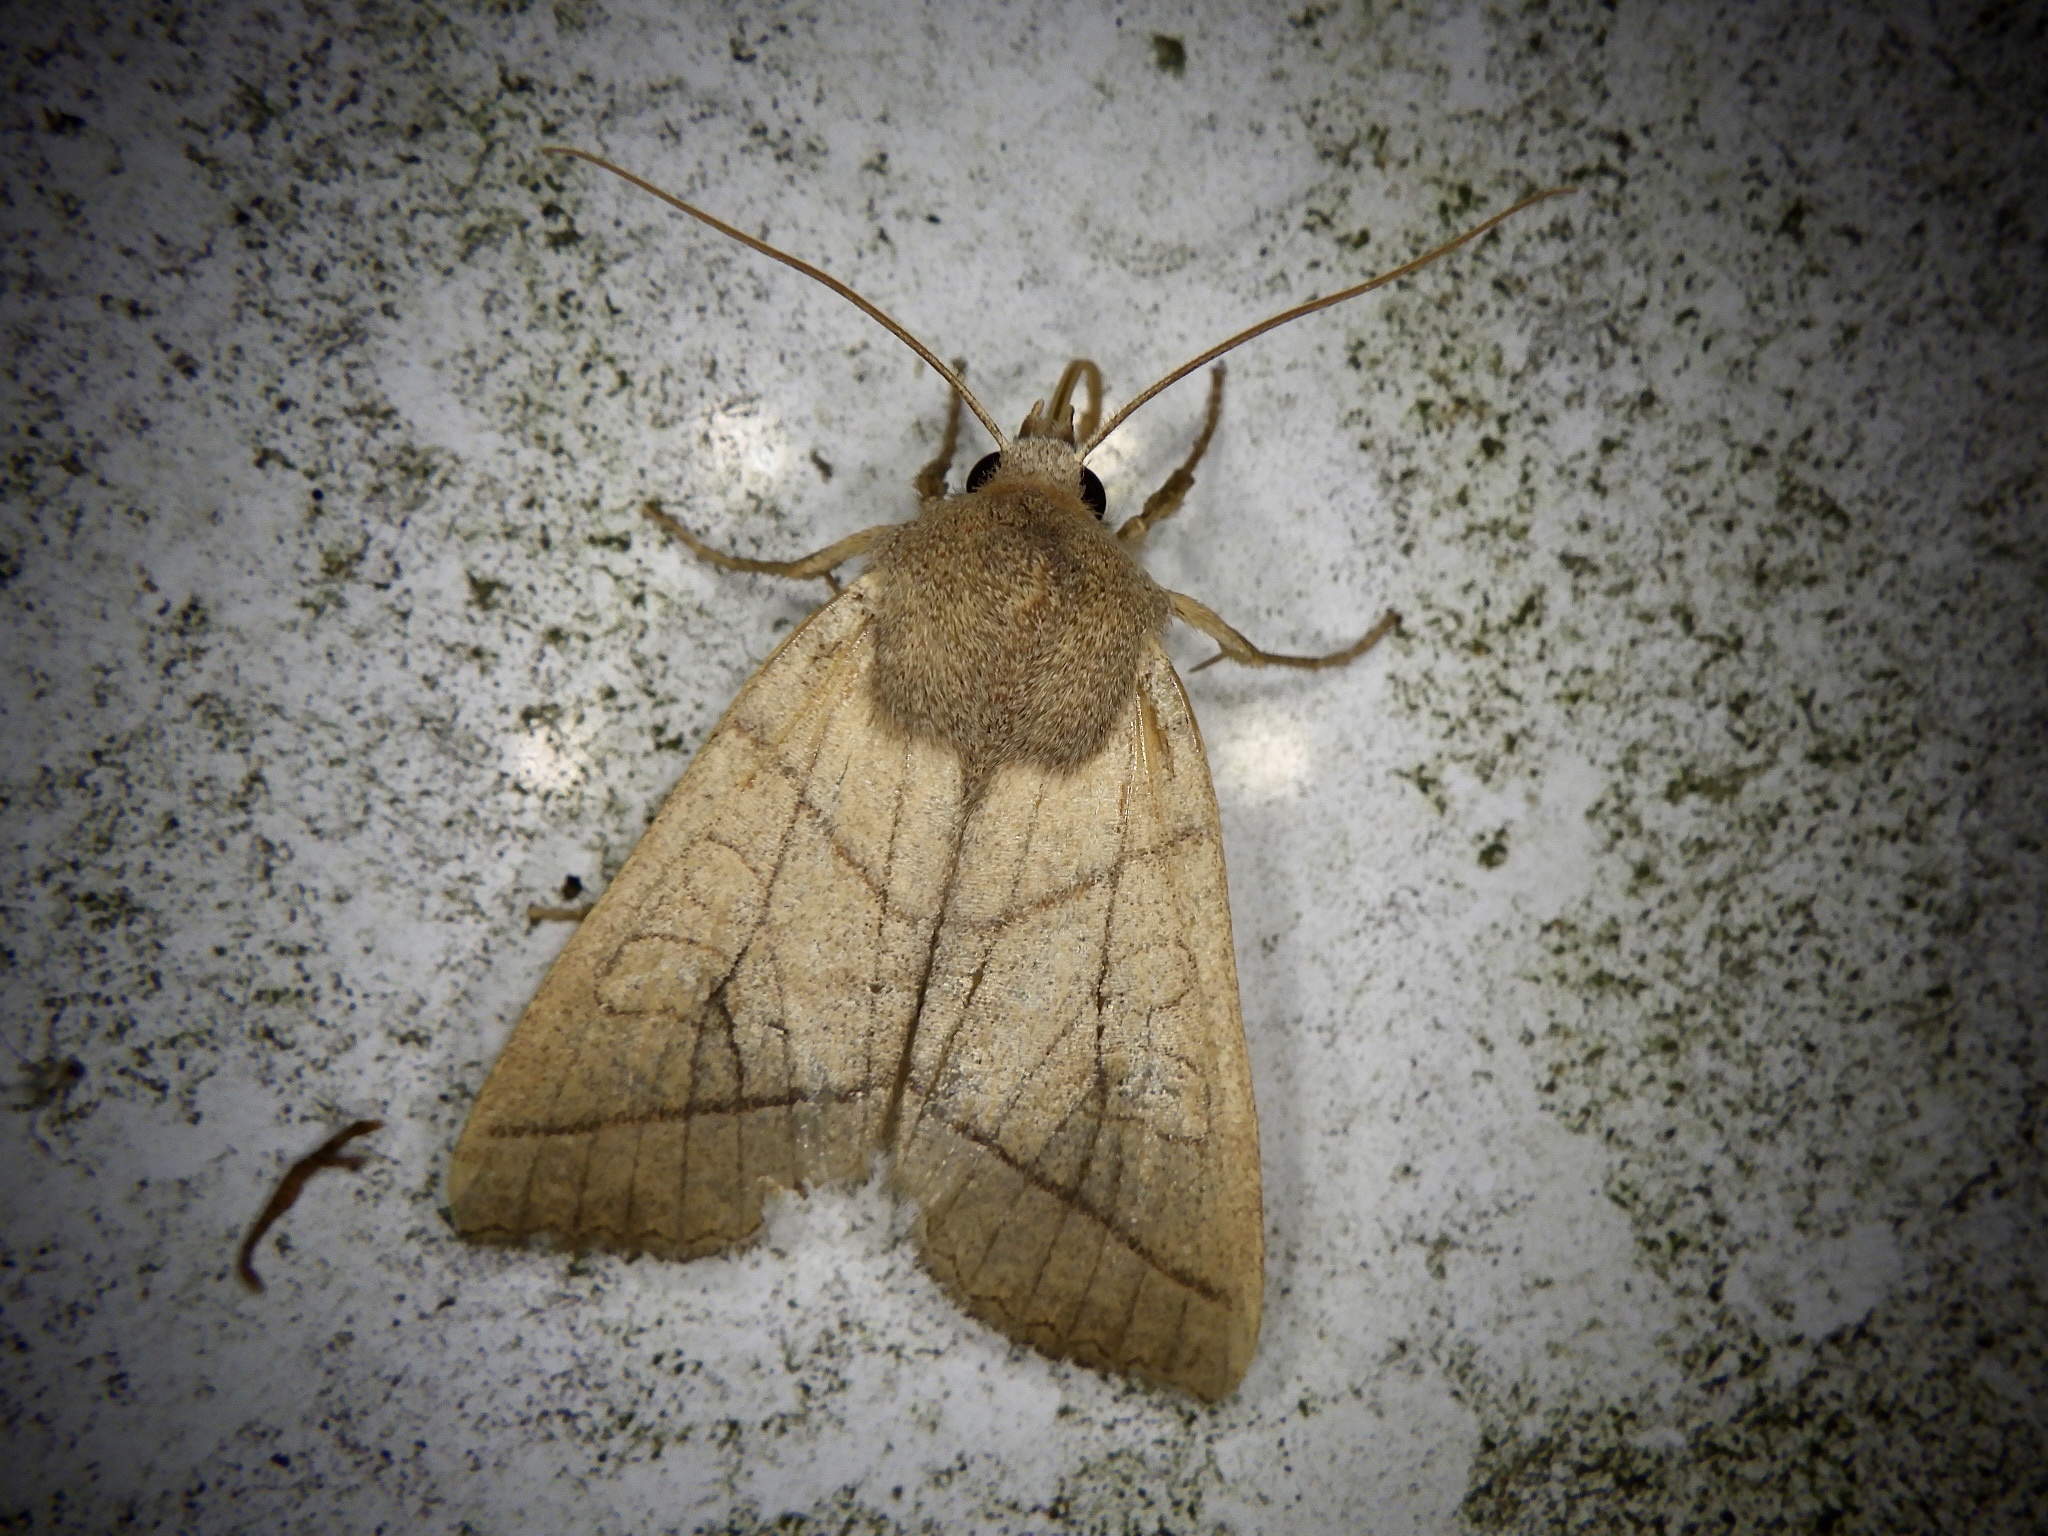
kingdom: Animalia
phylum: Arthropoda
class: Insecta
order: Lepidoptera
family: Noctuidae
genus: Telorta
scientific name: Telorta divergens
